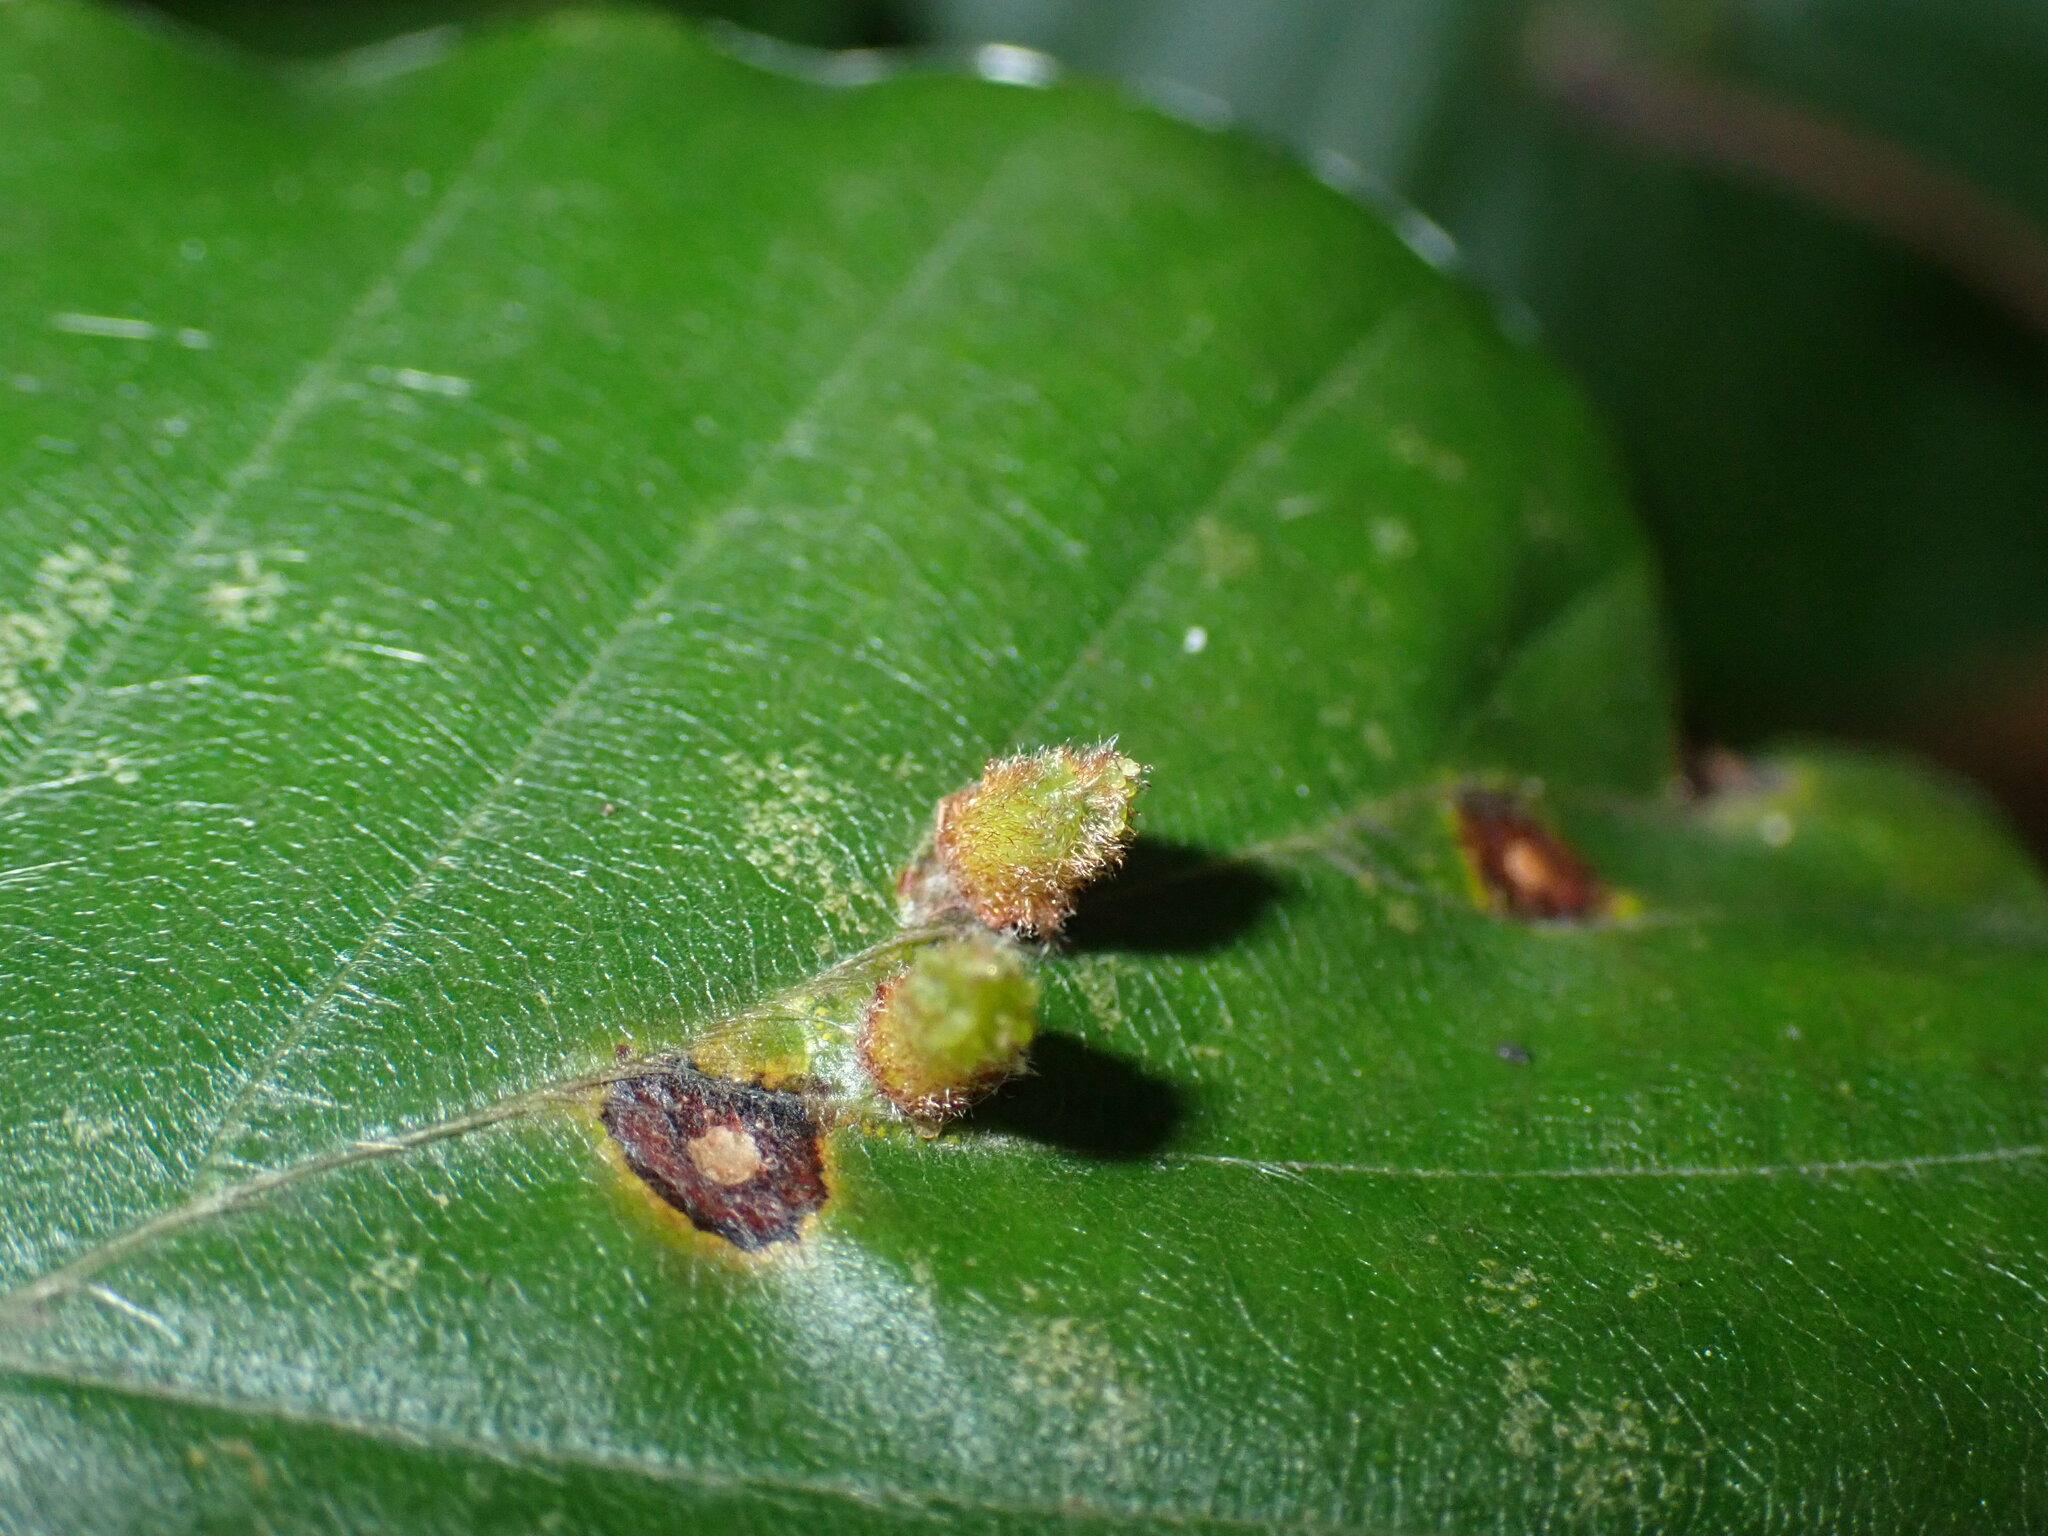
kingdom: Animalia
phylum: Arthropoda
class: Insecta
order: Diptera
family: Cecidomyiidae
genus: Hartigiola
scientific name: Hartigiola annulipes
